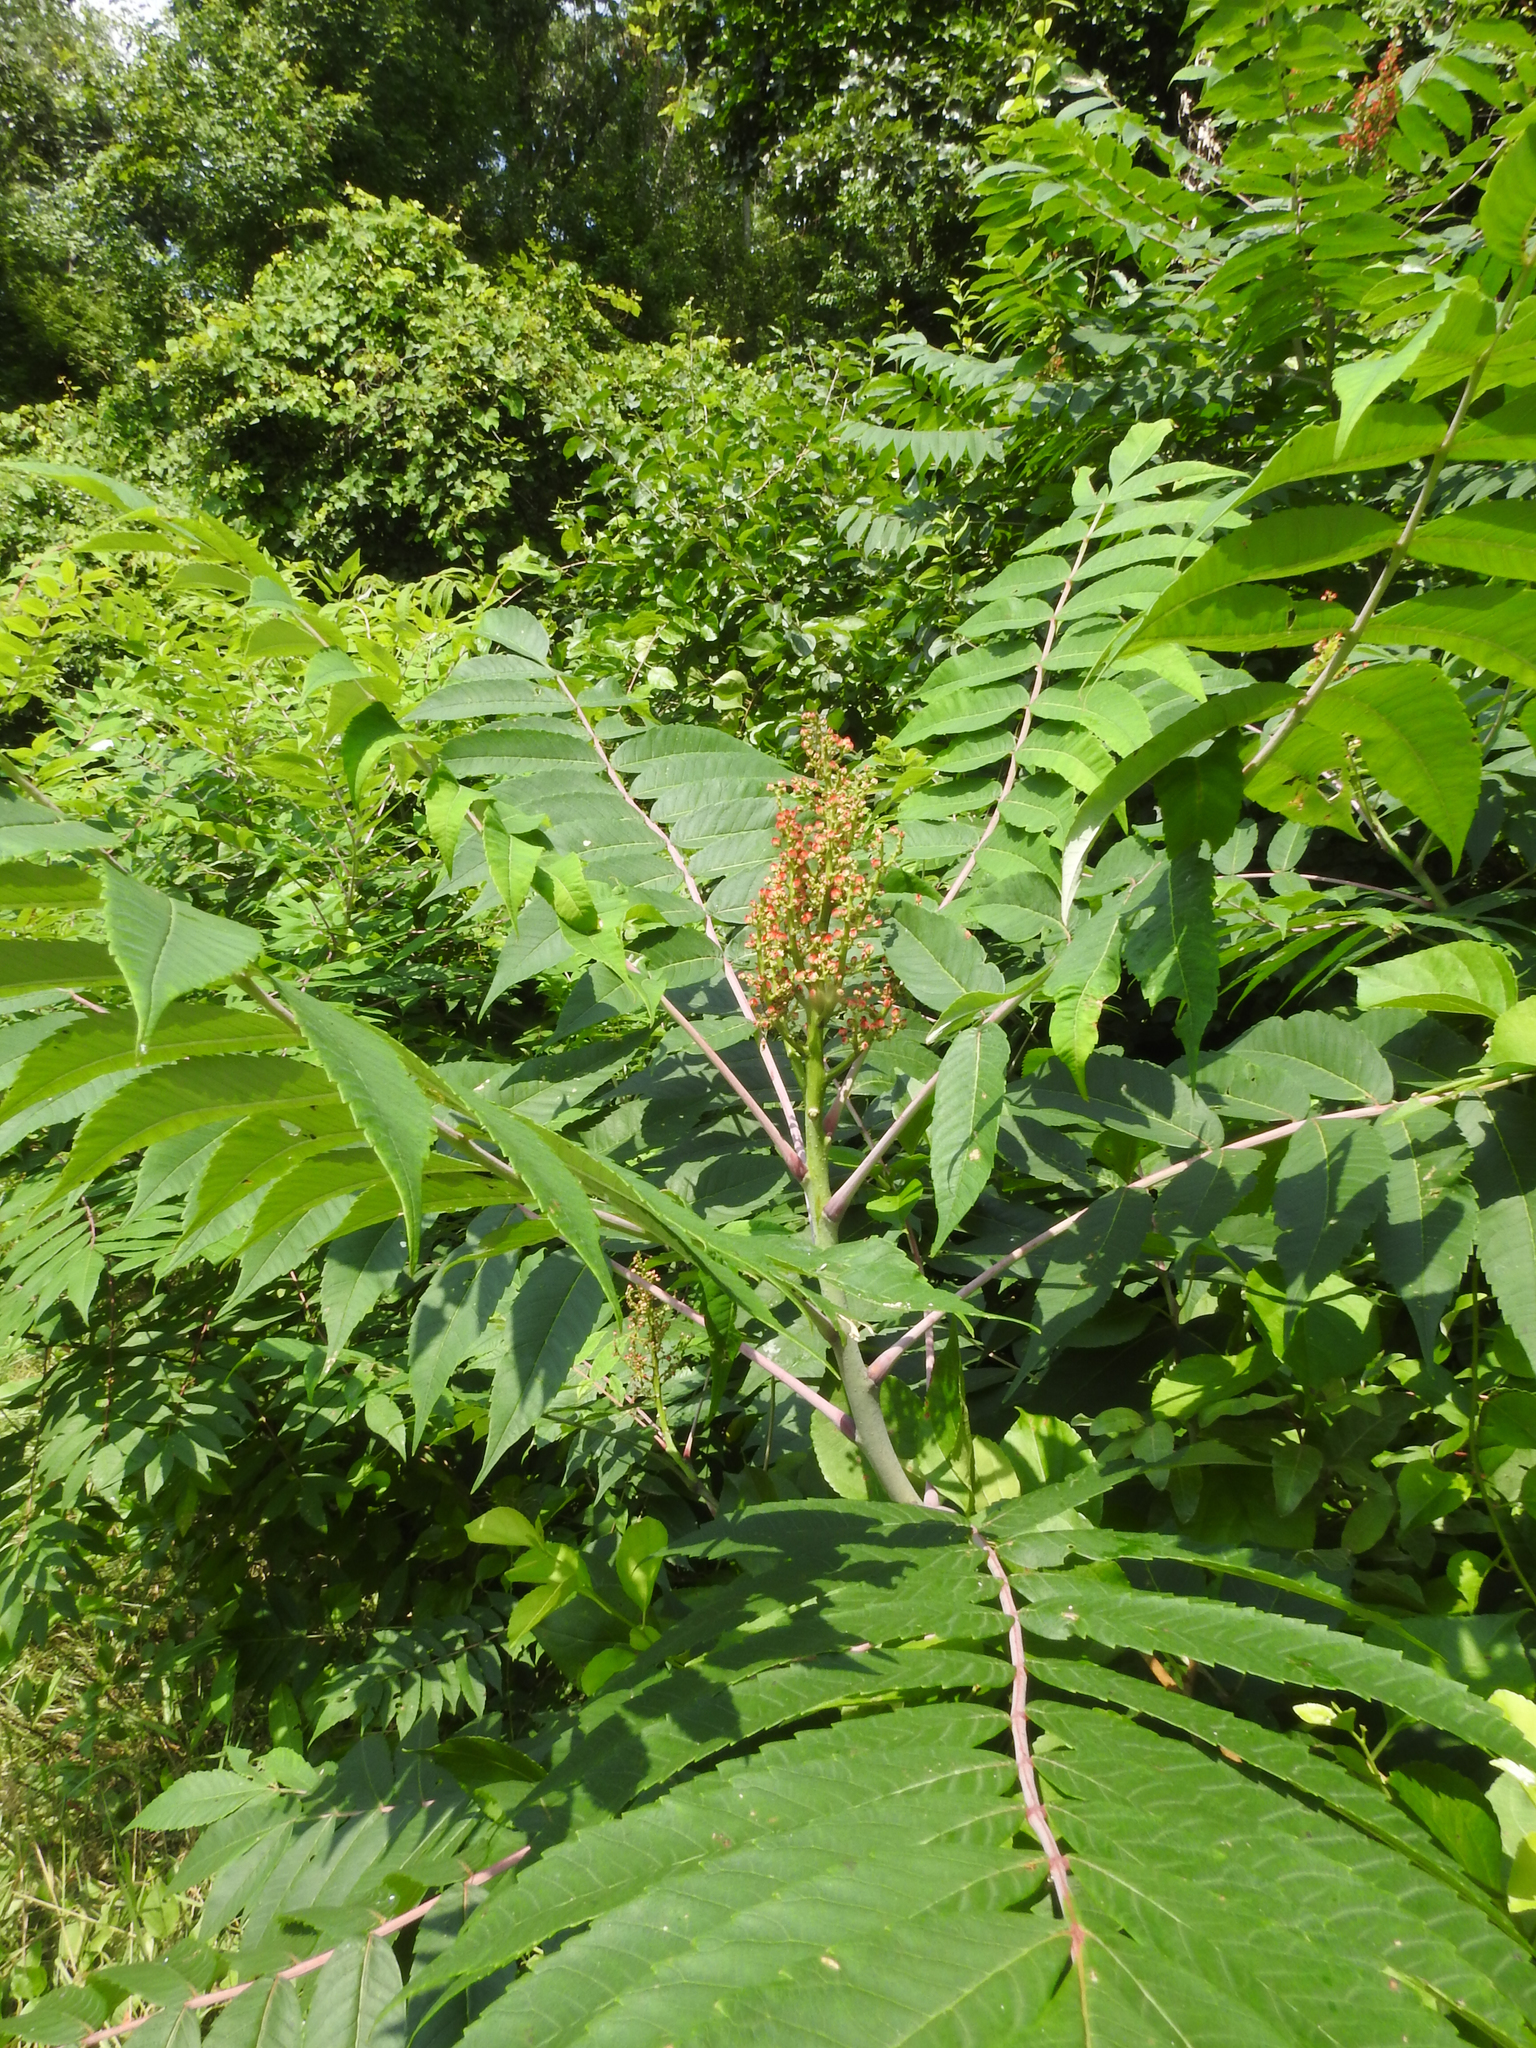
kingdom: Plantae
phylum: Tracheophyta
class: Magnoliopsida
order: Sapindales
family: Anacardiaceae
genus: Rhus
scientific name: Rhus glabra
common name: Scarlet sumac
